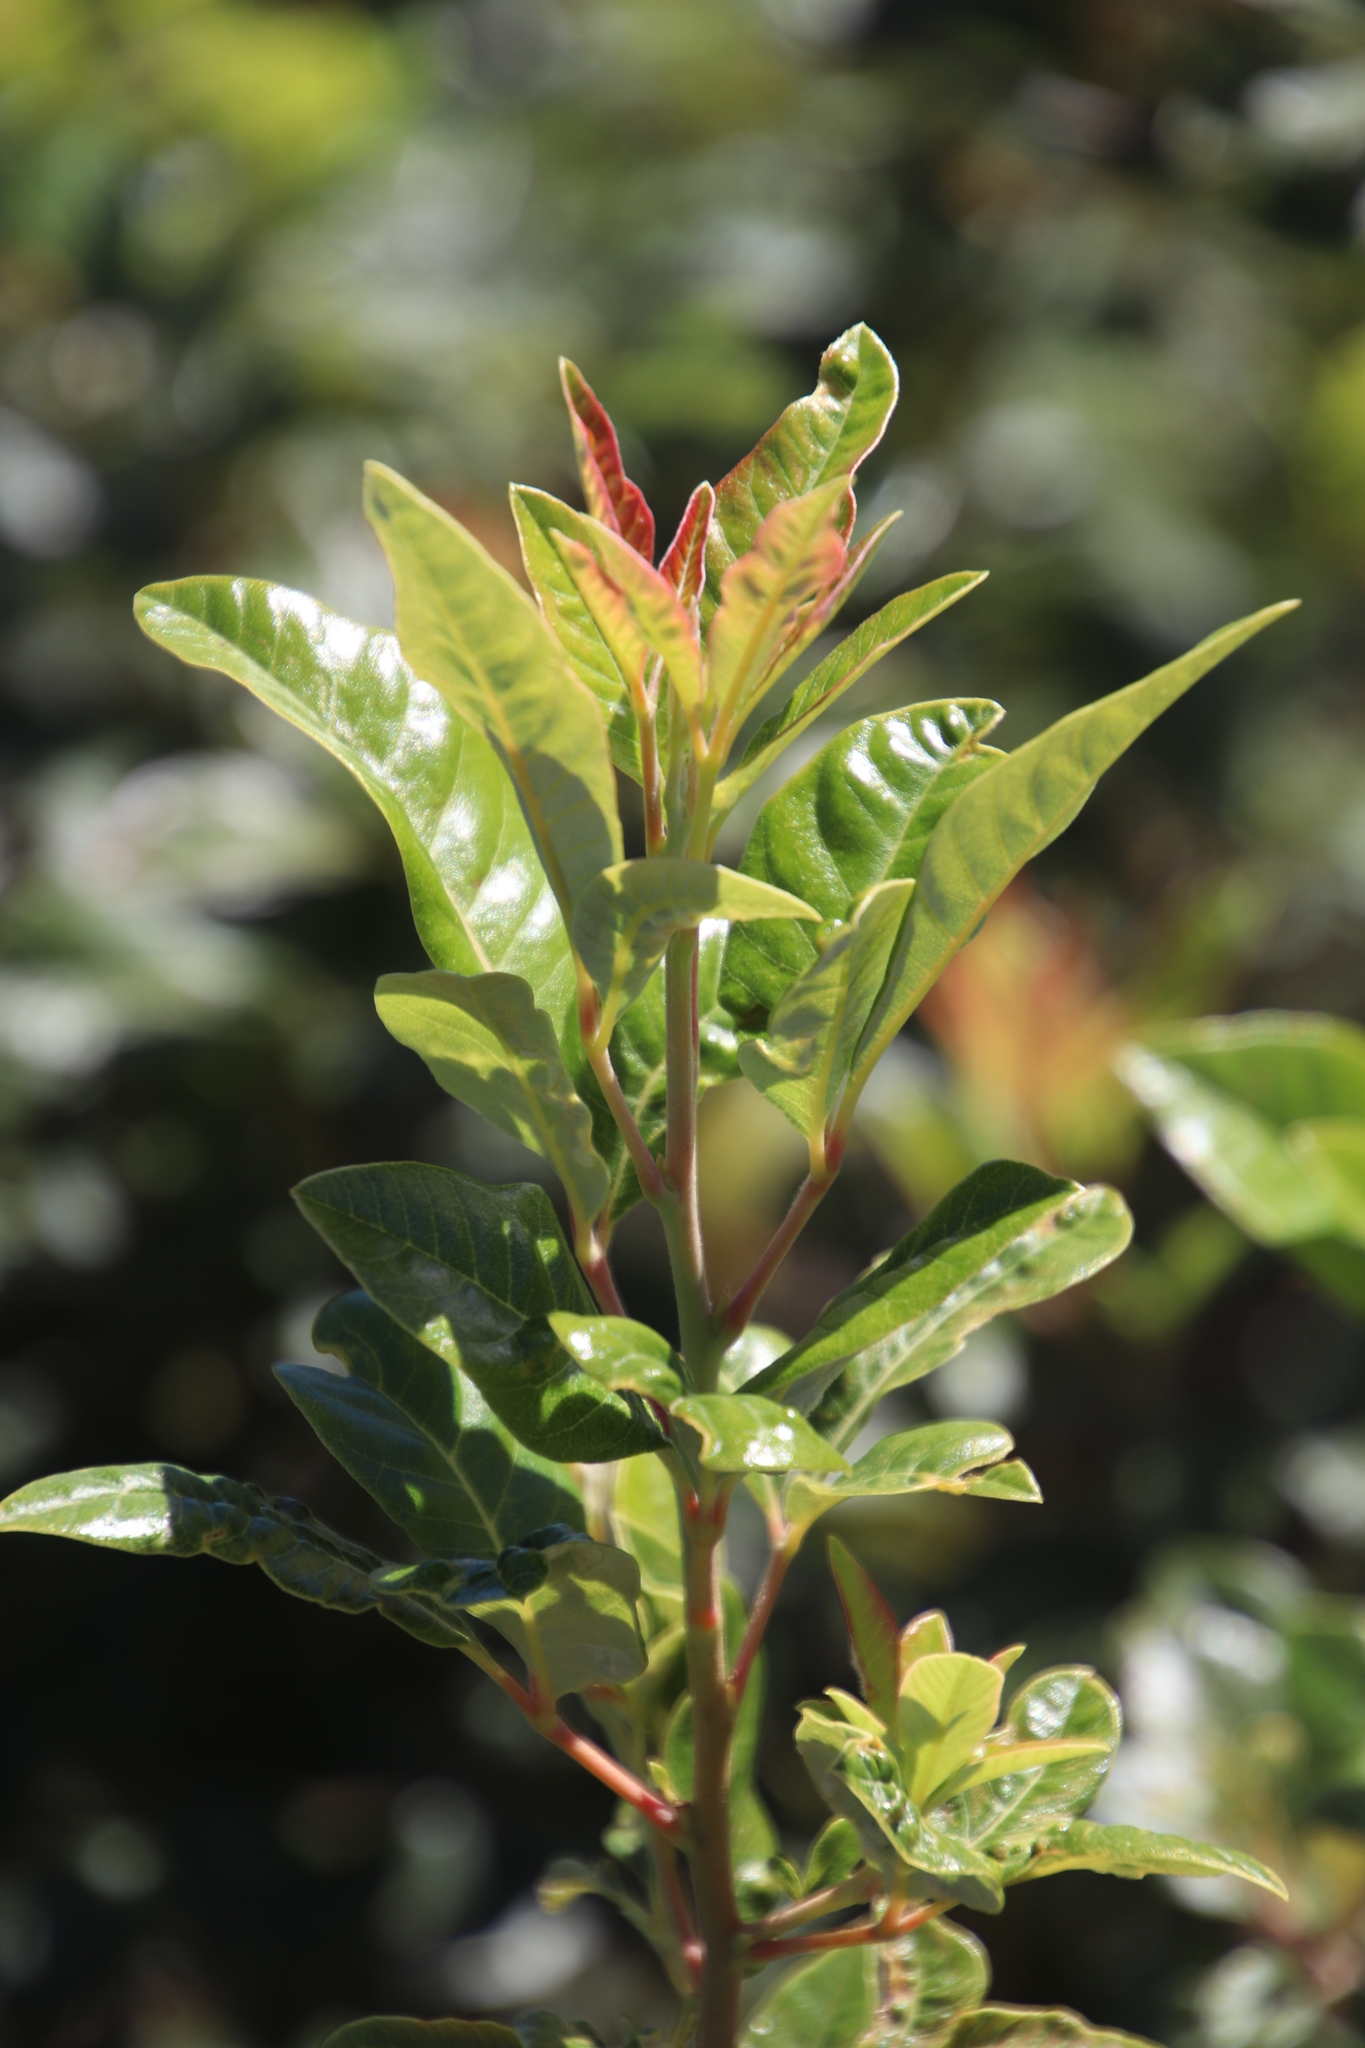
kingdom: Plantae
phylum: Tracheophyta
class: Magnoliopsida
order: Sapindales
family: Anacardiaceae
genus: Searsia
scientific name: Searsia tomentosa
